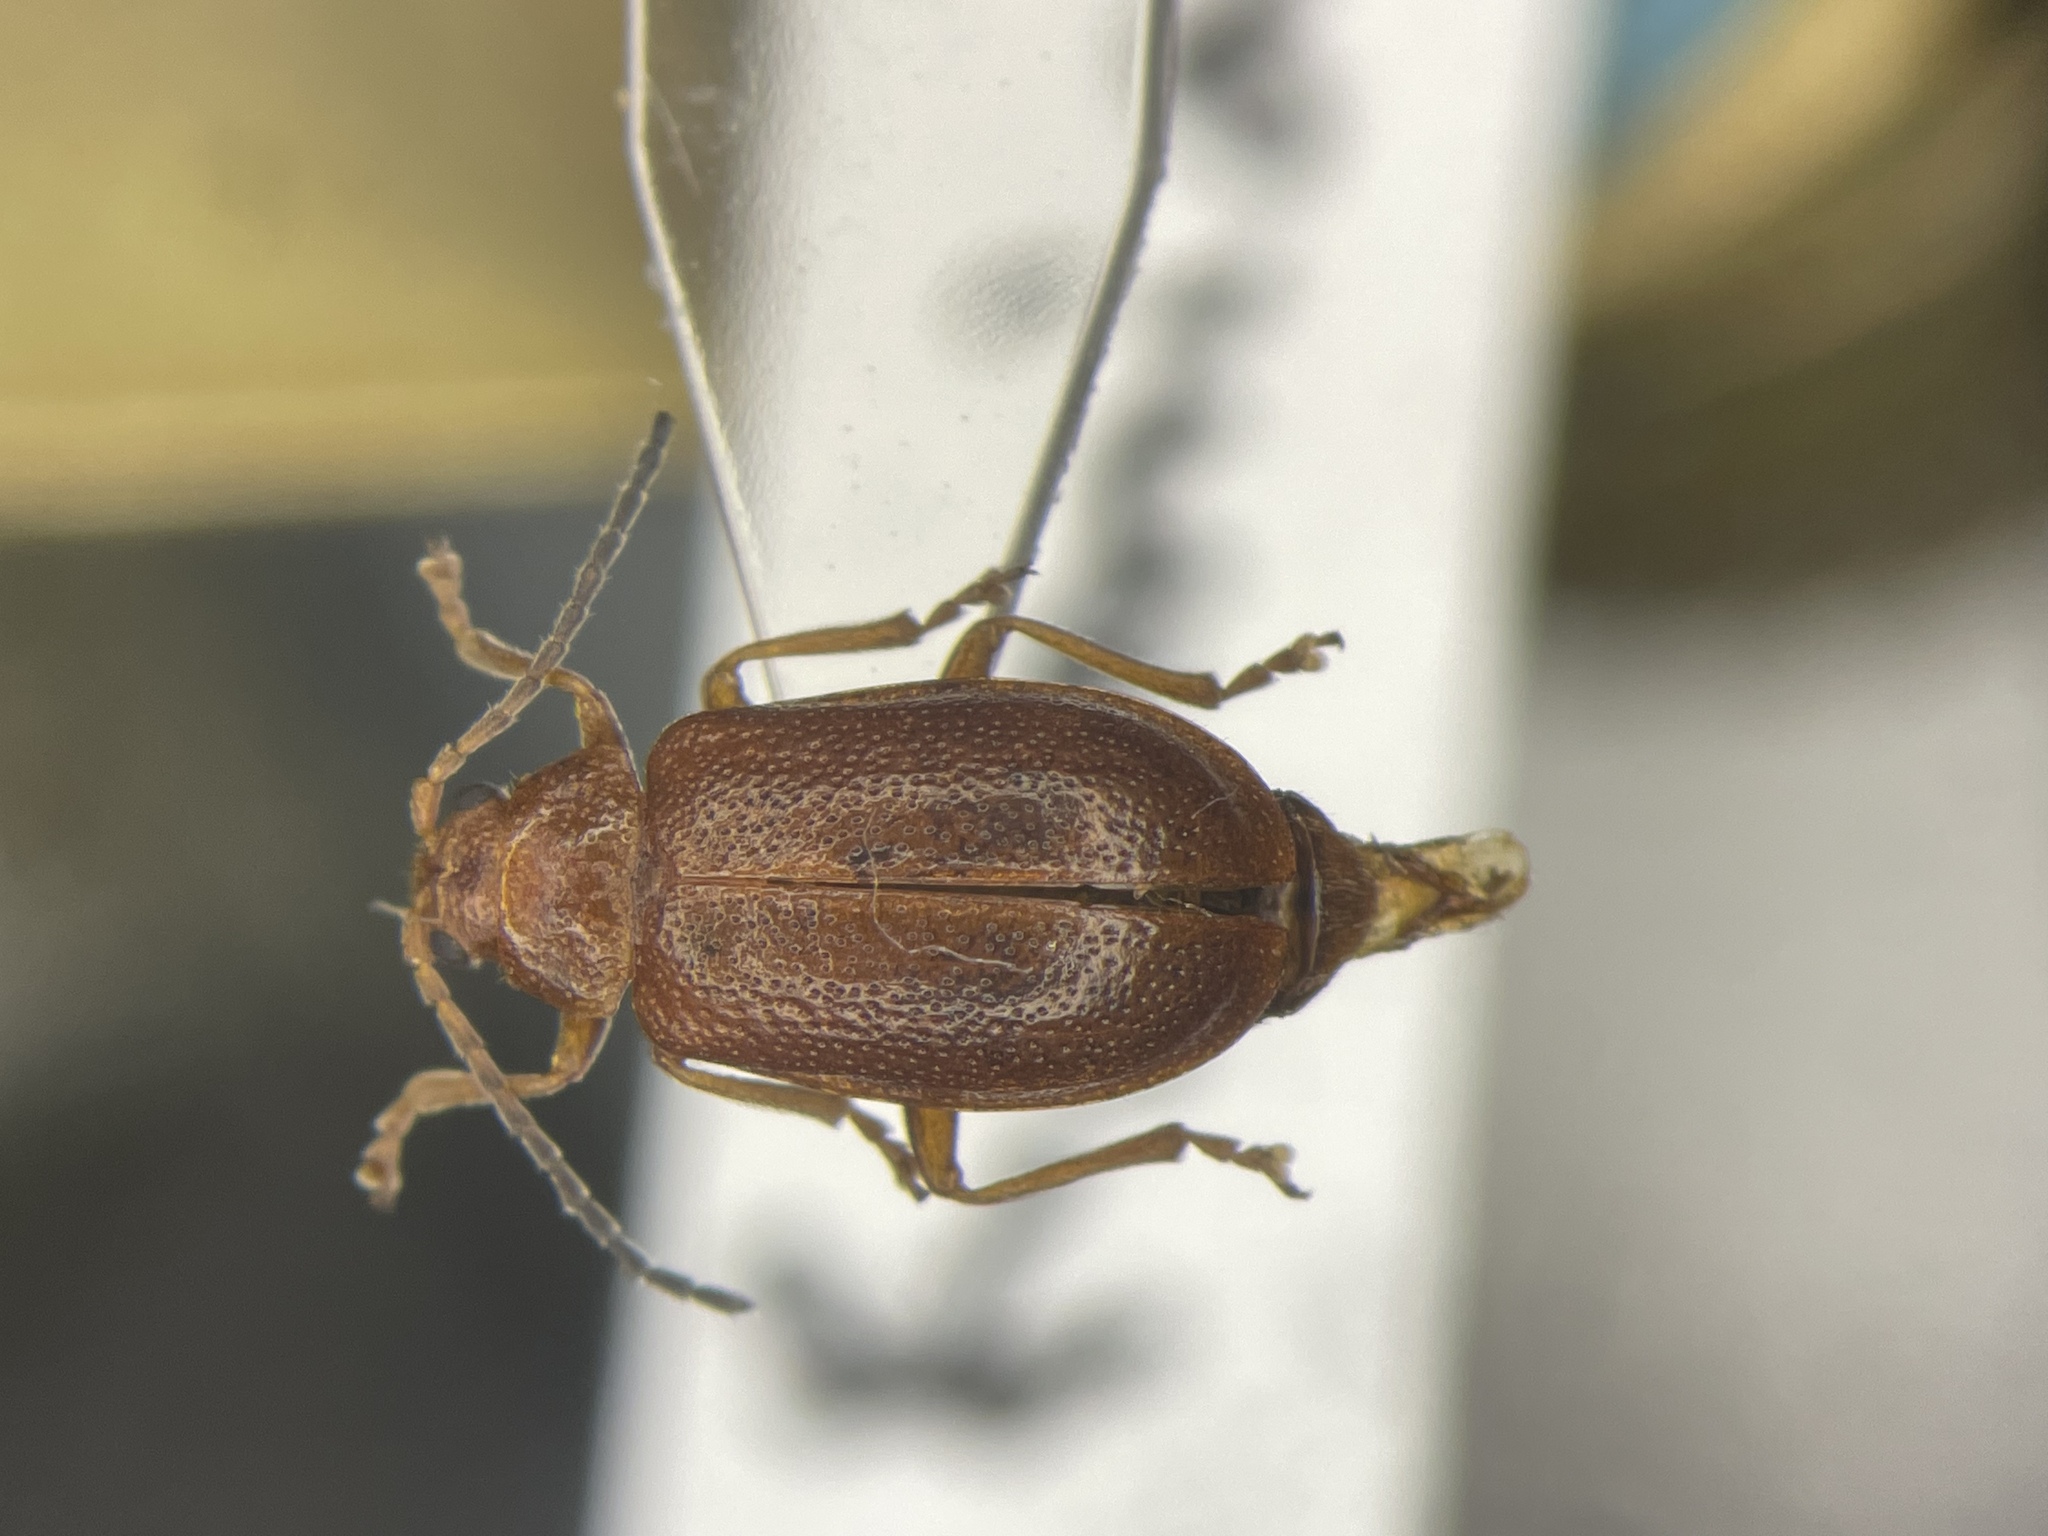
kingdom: Animalia
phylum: Arthropoda
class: Insecta
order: Coleoptera
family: Chrysomelidae
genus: Tricholochmaea
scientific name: Tricholochmaea kalmiae
